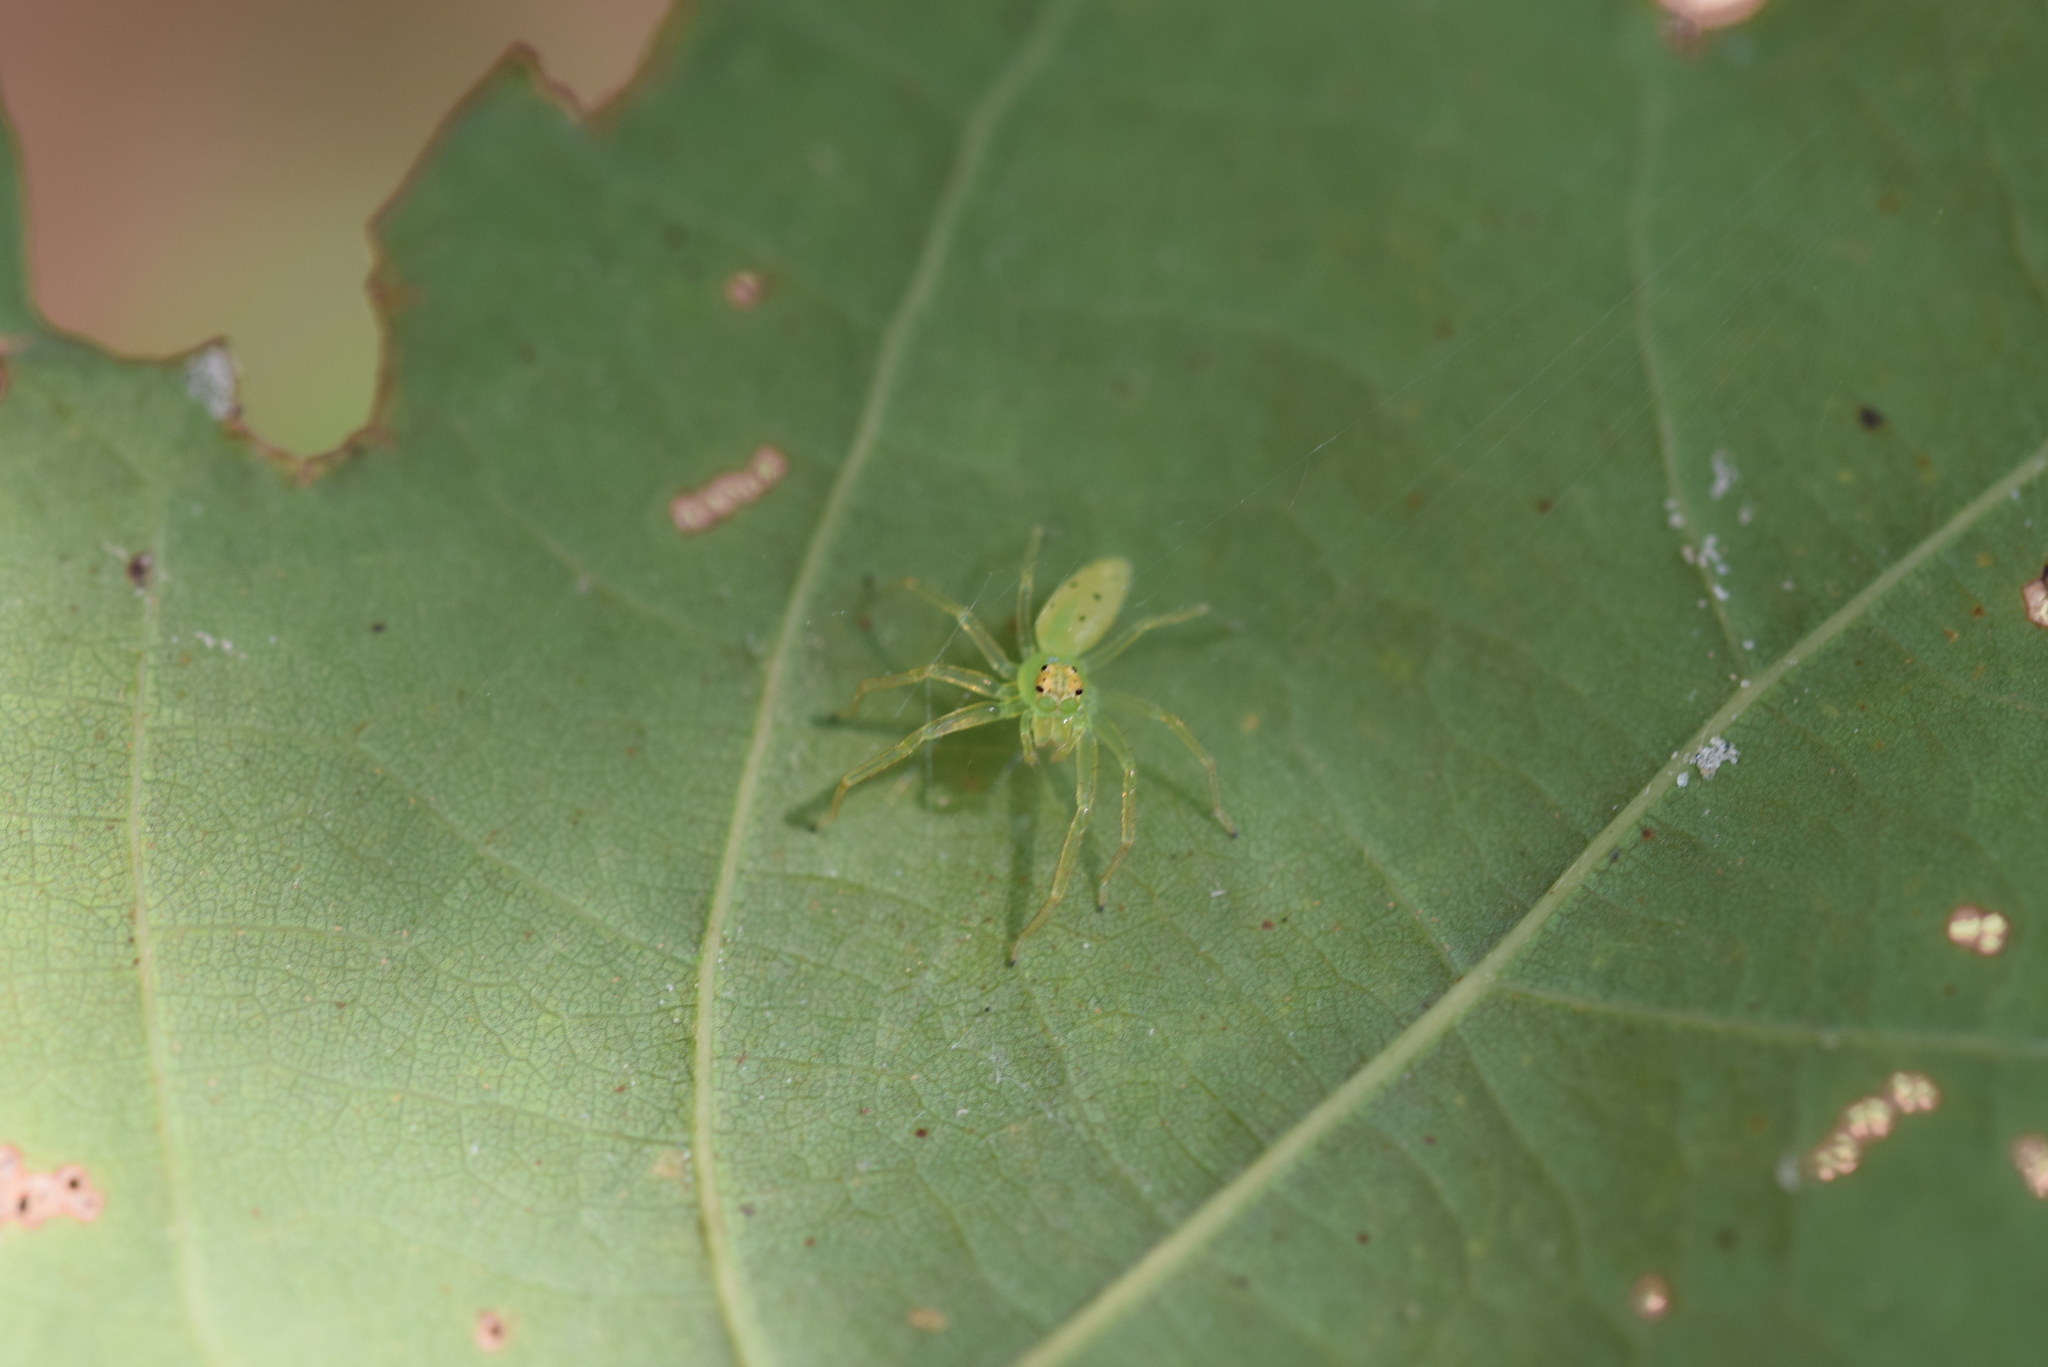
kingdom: Animalia
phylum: Arthropoda
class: Arachnida
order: Araneae
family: Salticidae
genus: Lyssomanes
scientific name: Lyssomanes viridis
